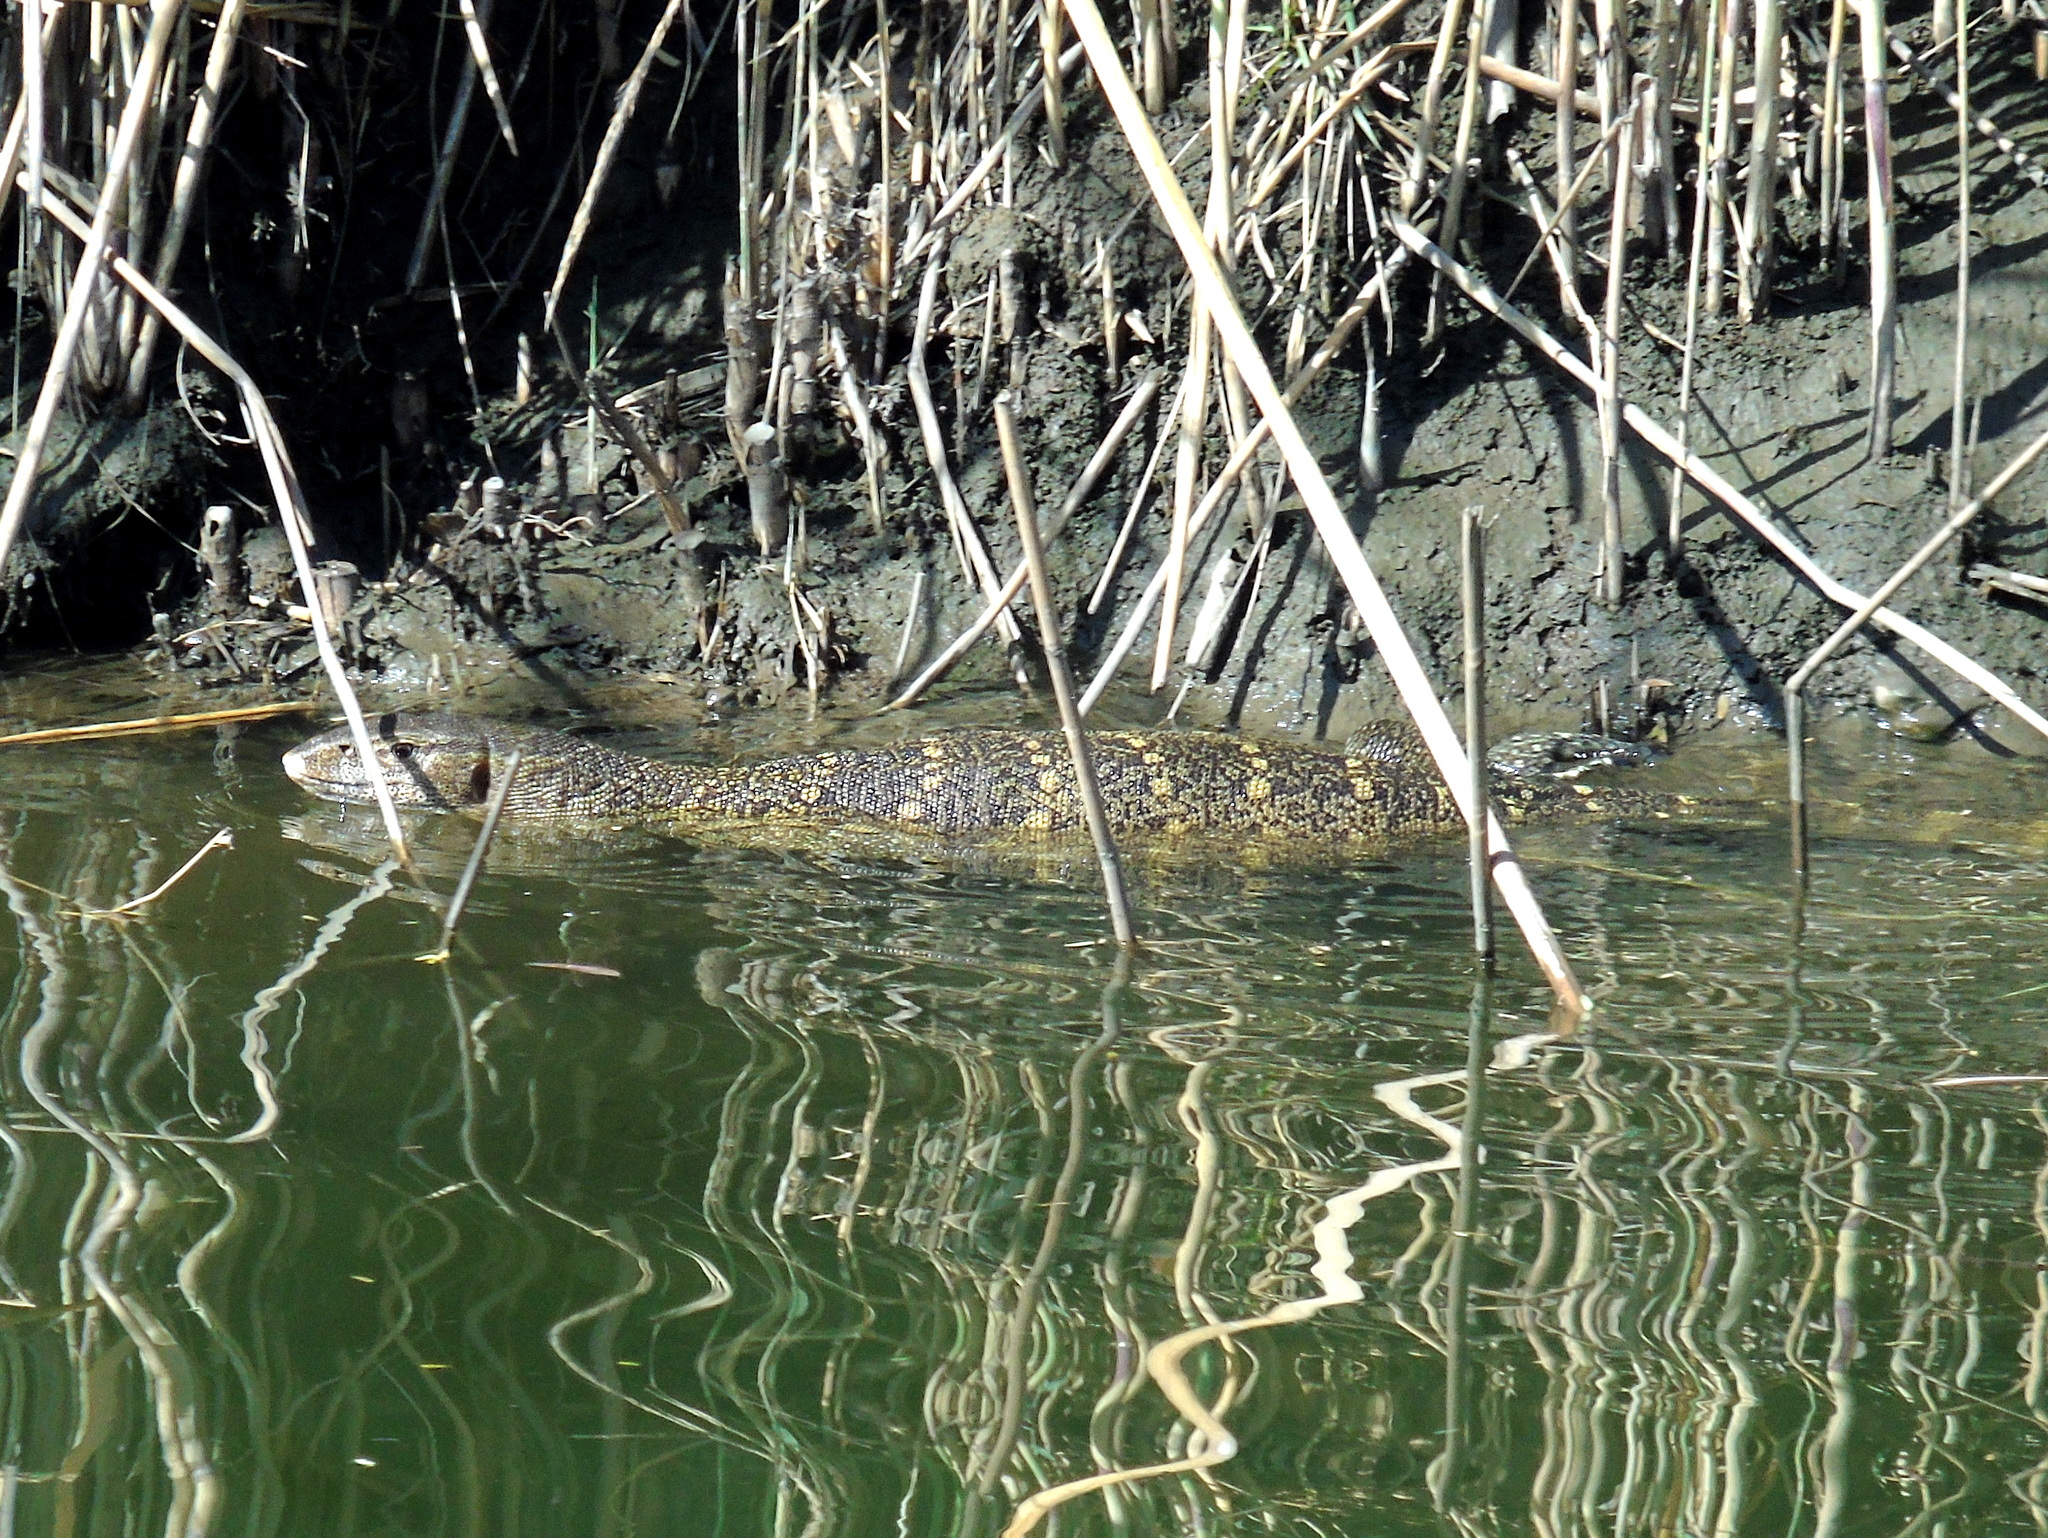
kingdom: Animalia
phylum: Chordata
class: Squamata
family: Varanidae
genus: Varanus
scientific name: Varanus niloticus
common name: Nile monitor
